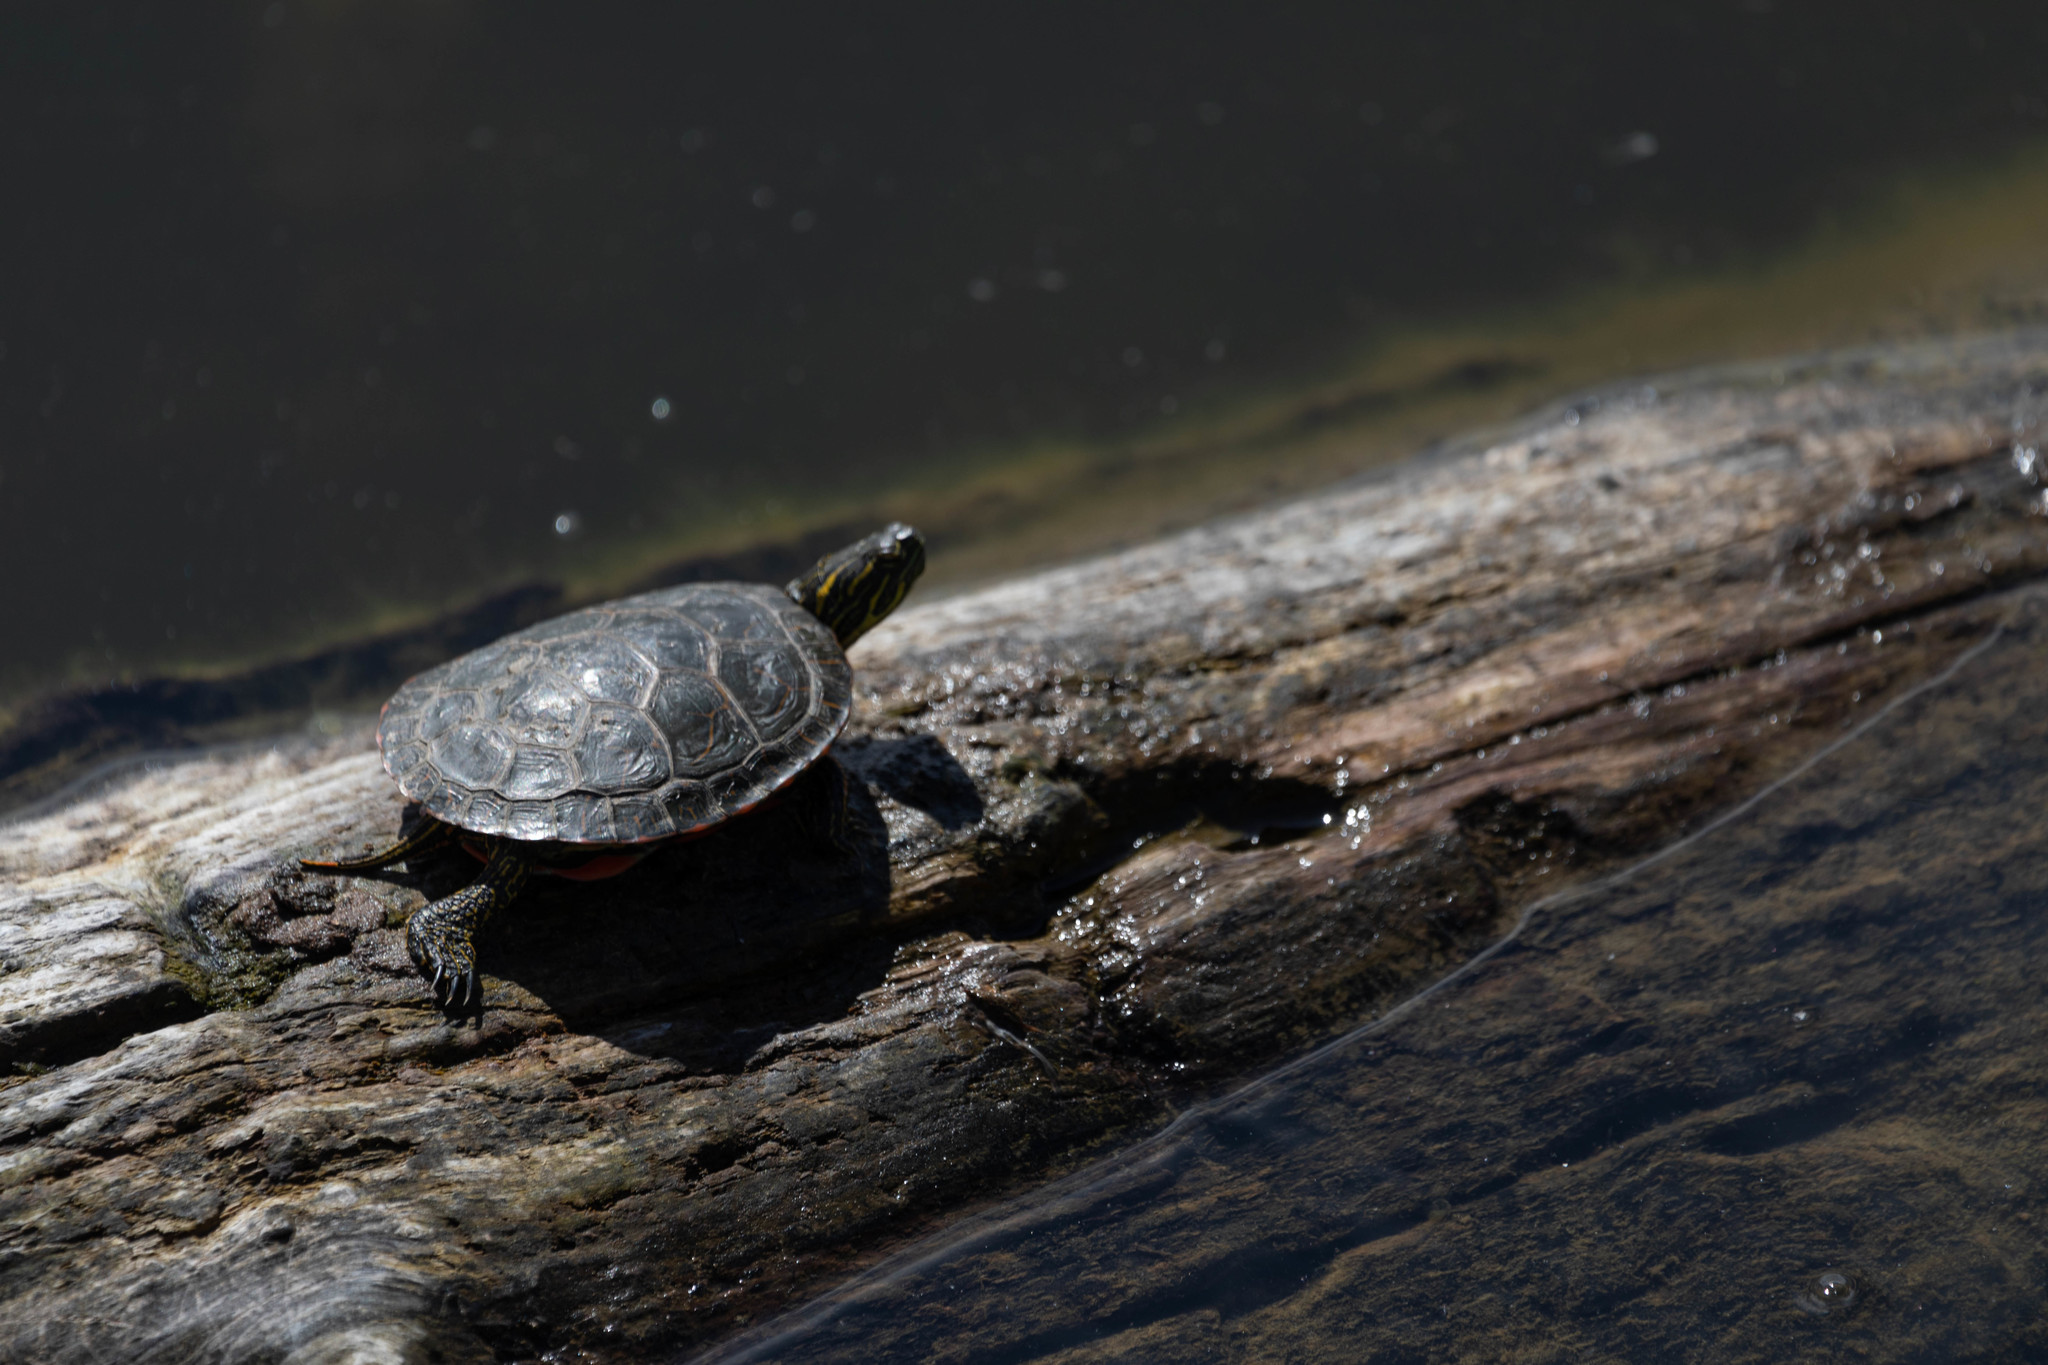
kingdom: Animalia
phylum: Chordata
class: Testudines
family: Emydidae
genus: Chrysemys
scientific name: Chrysemys picta
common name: Painted turtle
